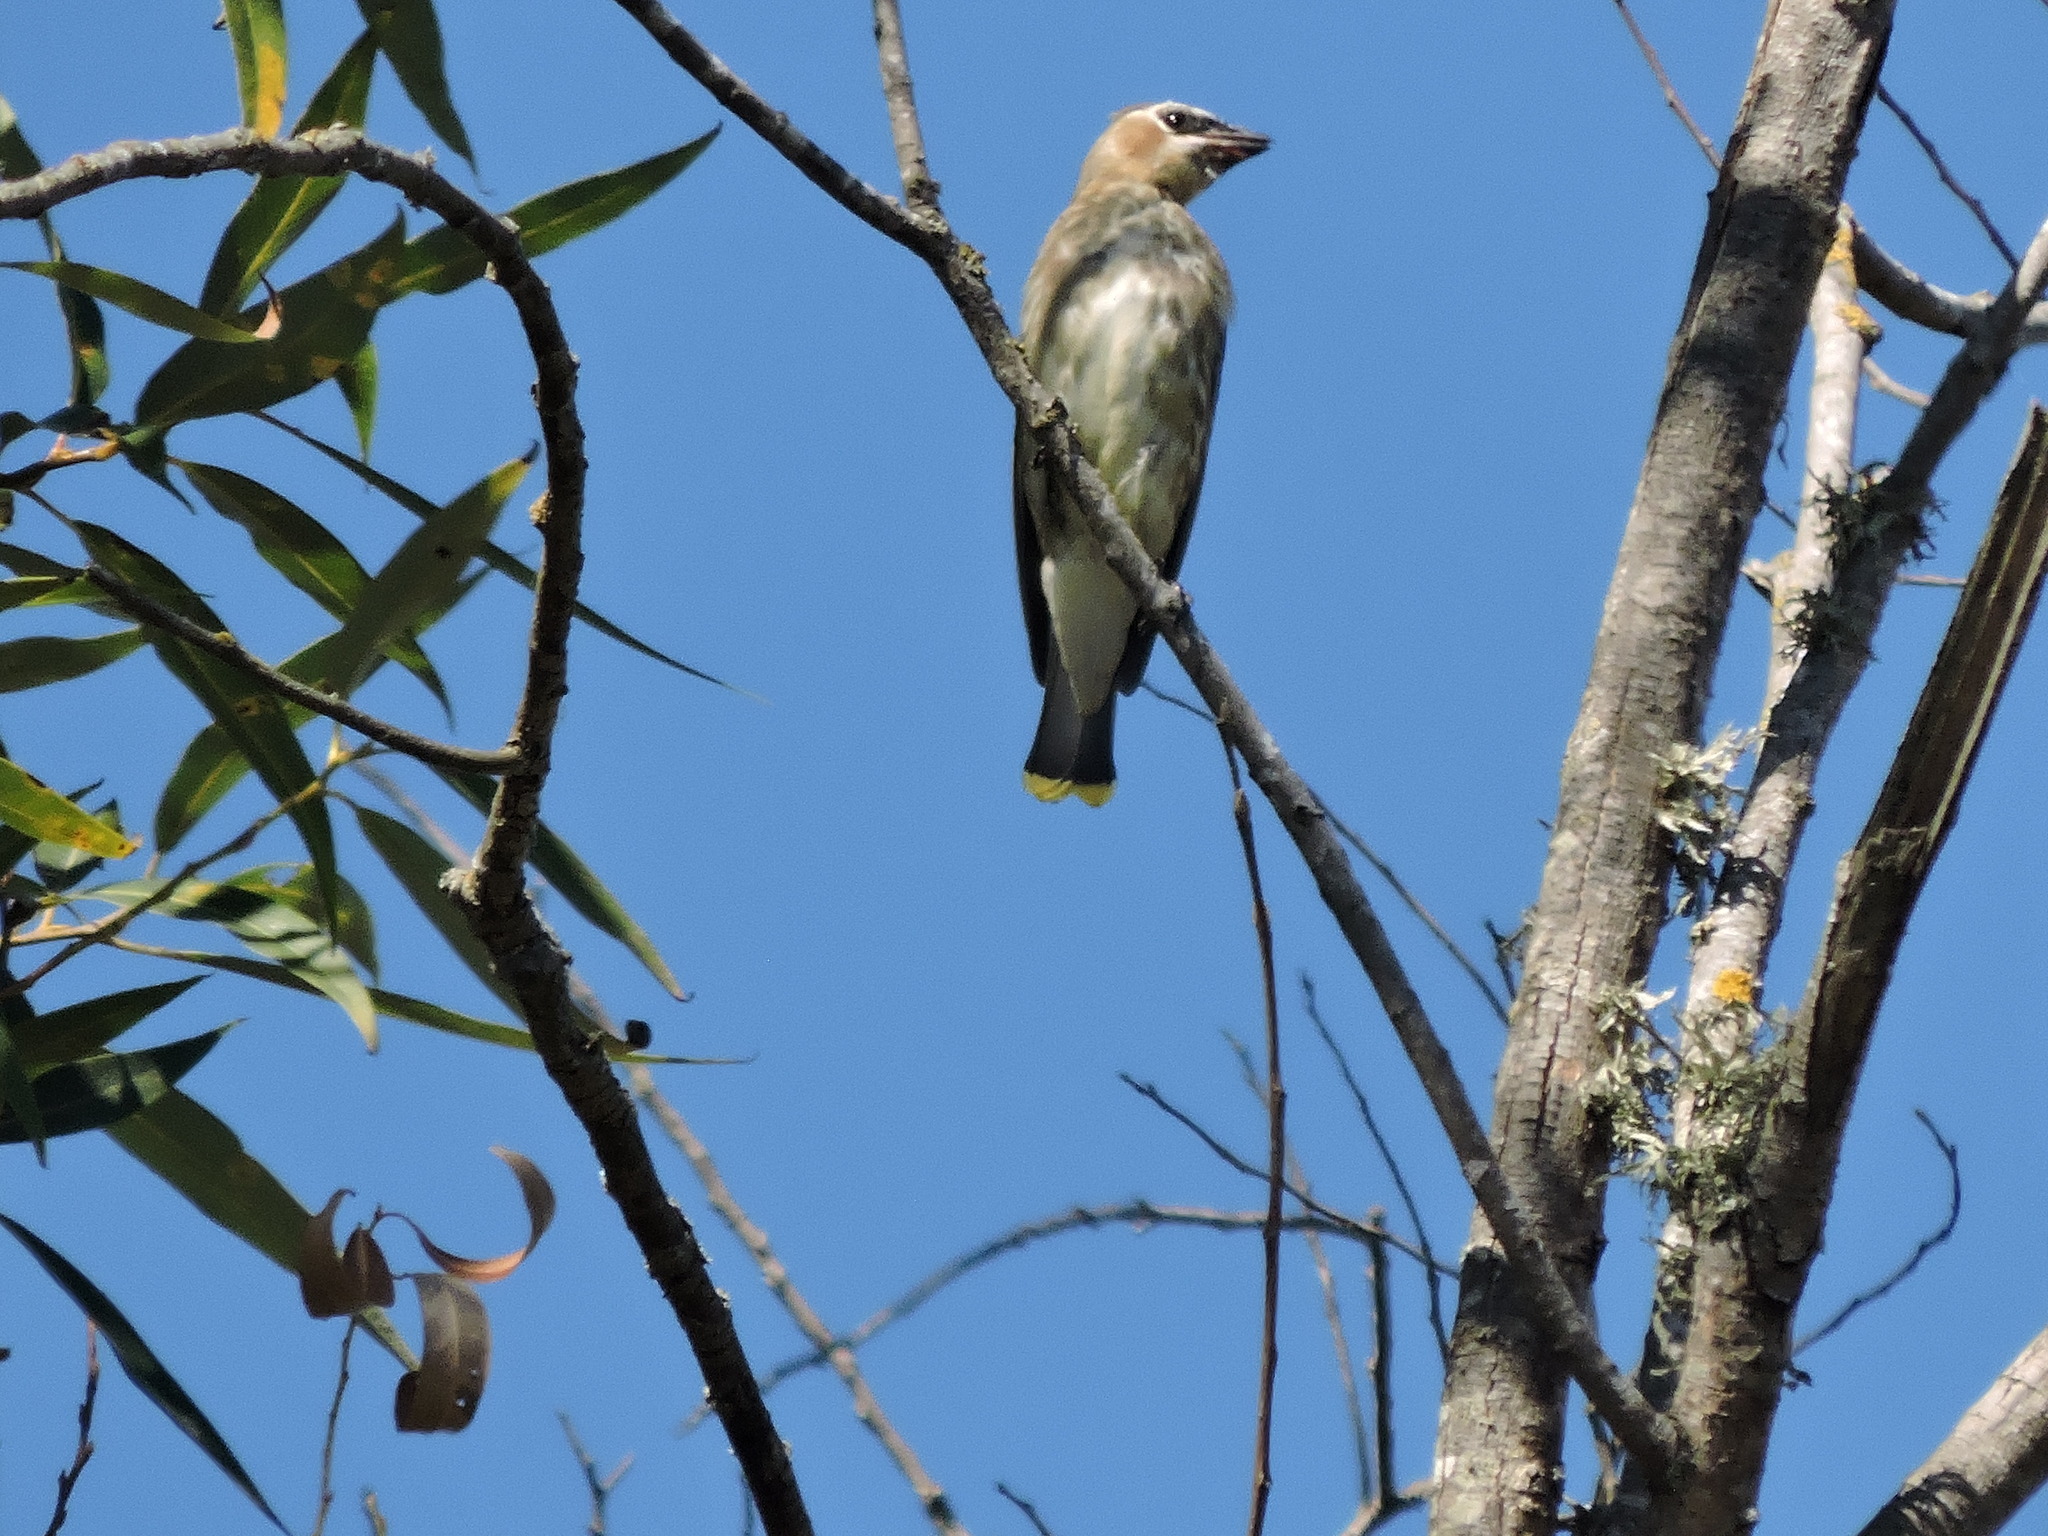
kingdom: Animalia
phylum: Chordata
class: Aves
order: Passeriformes
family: Bombycillidae
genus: Bombycilla
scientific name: Bombycilla cedrorum
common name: Cedar waxwing
